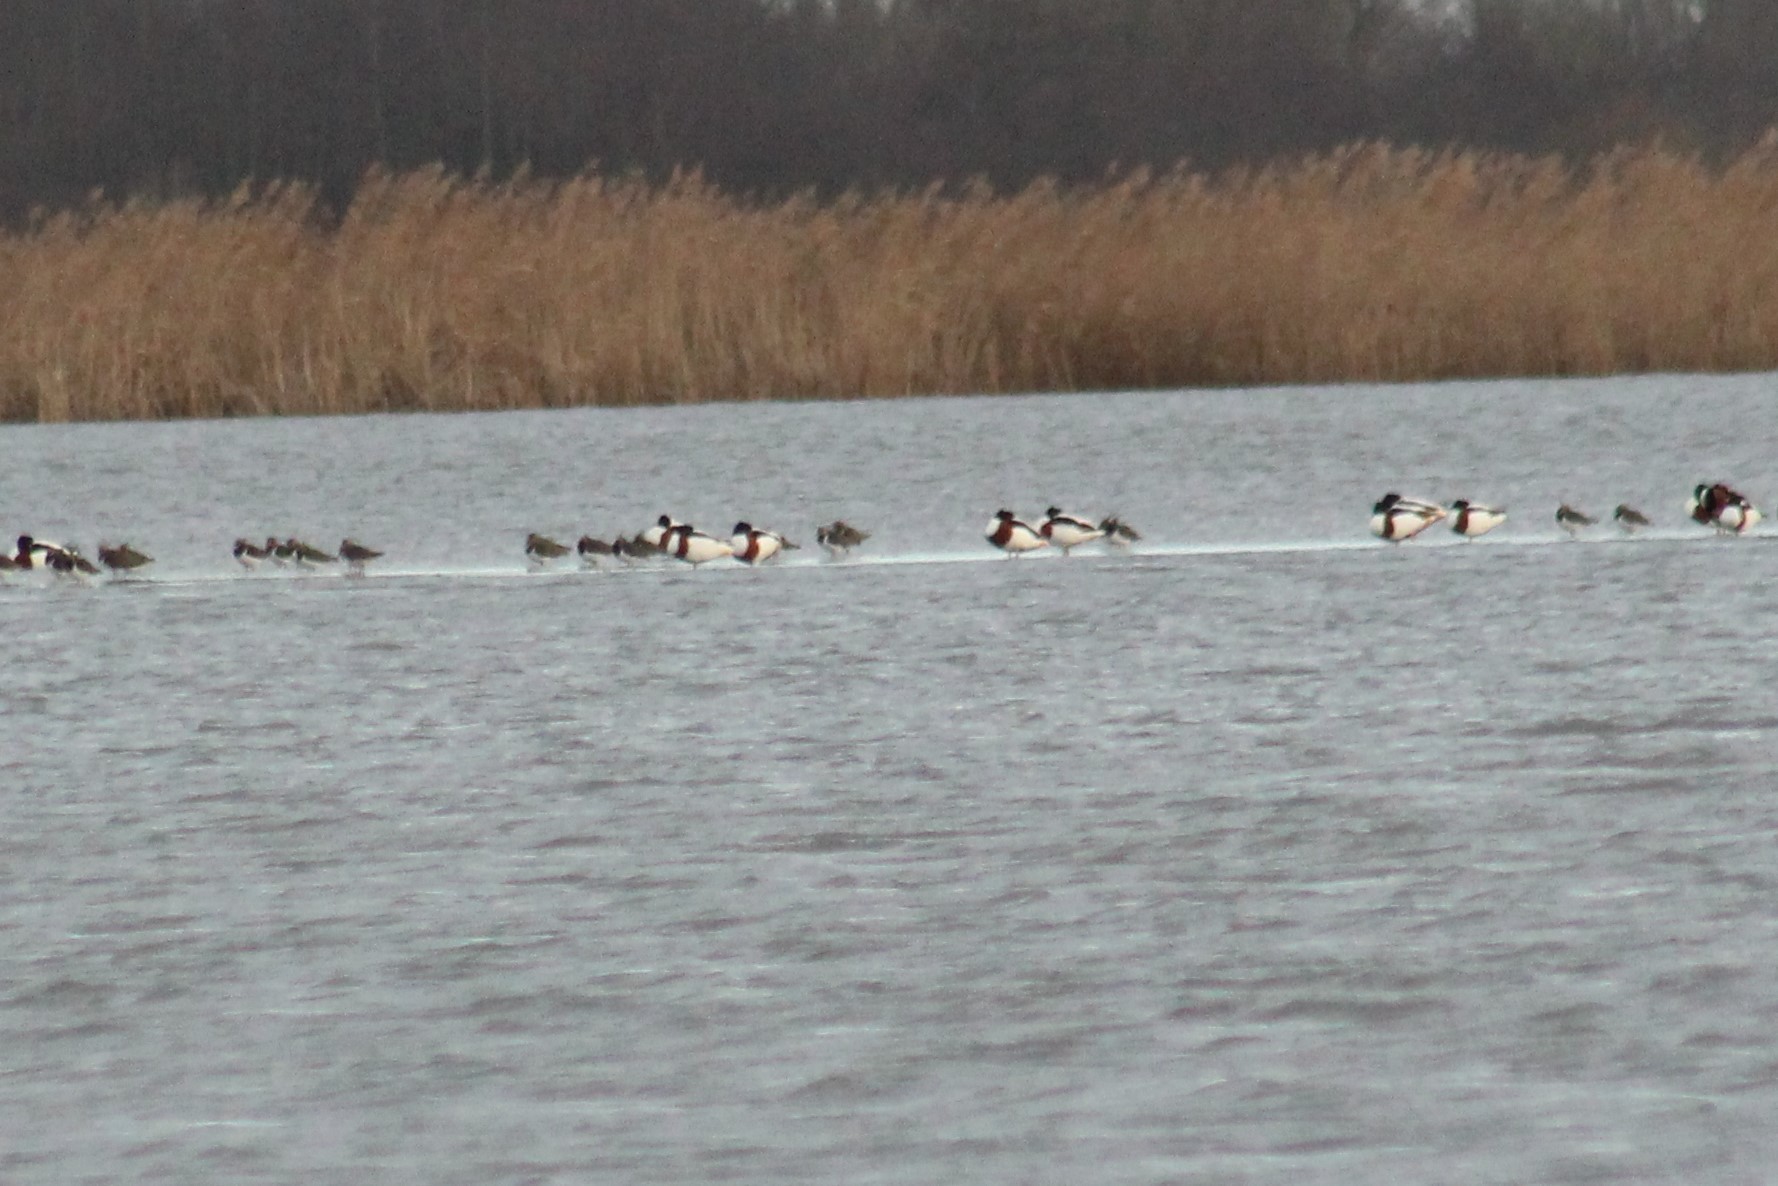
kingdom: Animalia
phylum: Chordata
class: Aves
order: Anseriformes
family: Anatidae
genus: Tadorna
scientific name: Tadorna tadorna
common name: Common shelduck
